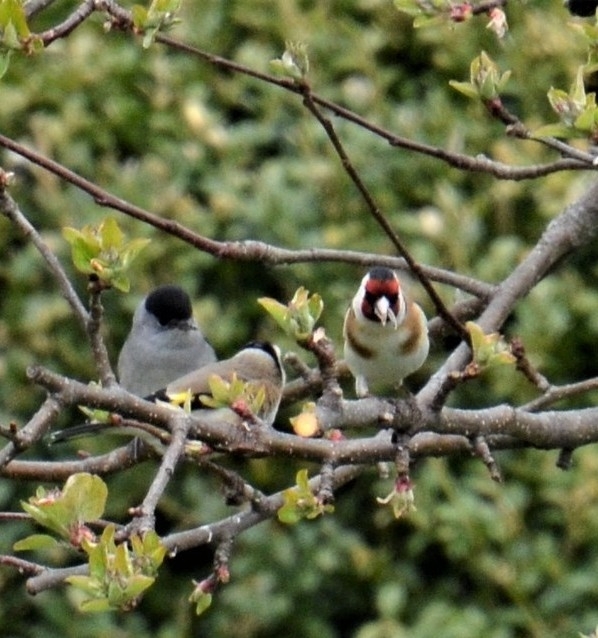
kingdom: Animalia
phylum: Chordata
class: Aves
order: Passeriformes
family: Sylviidae
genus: Sylvia
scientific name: Sylvia atricapilla
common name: Eurasian blackcap
